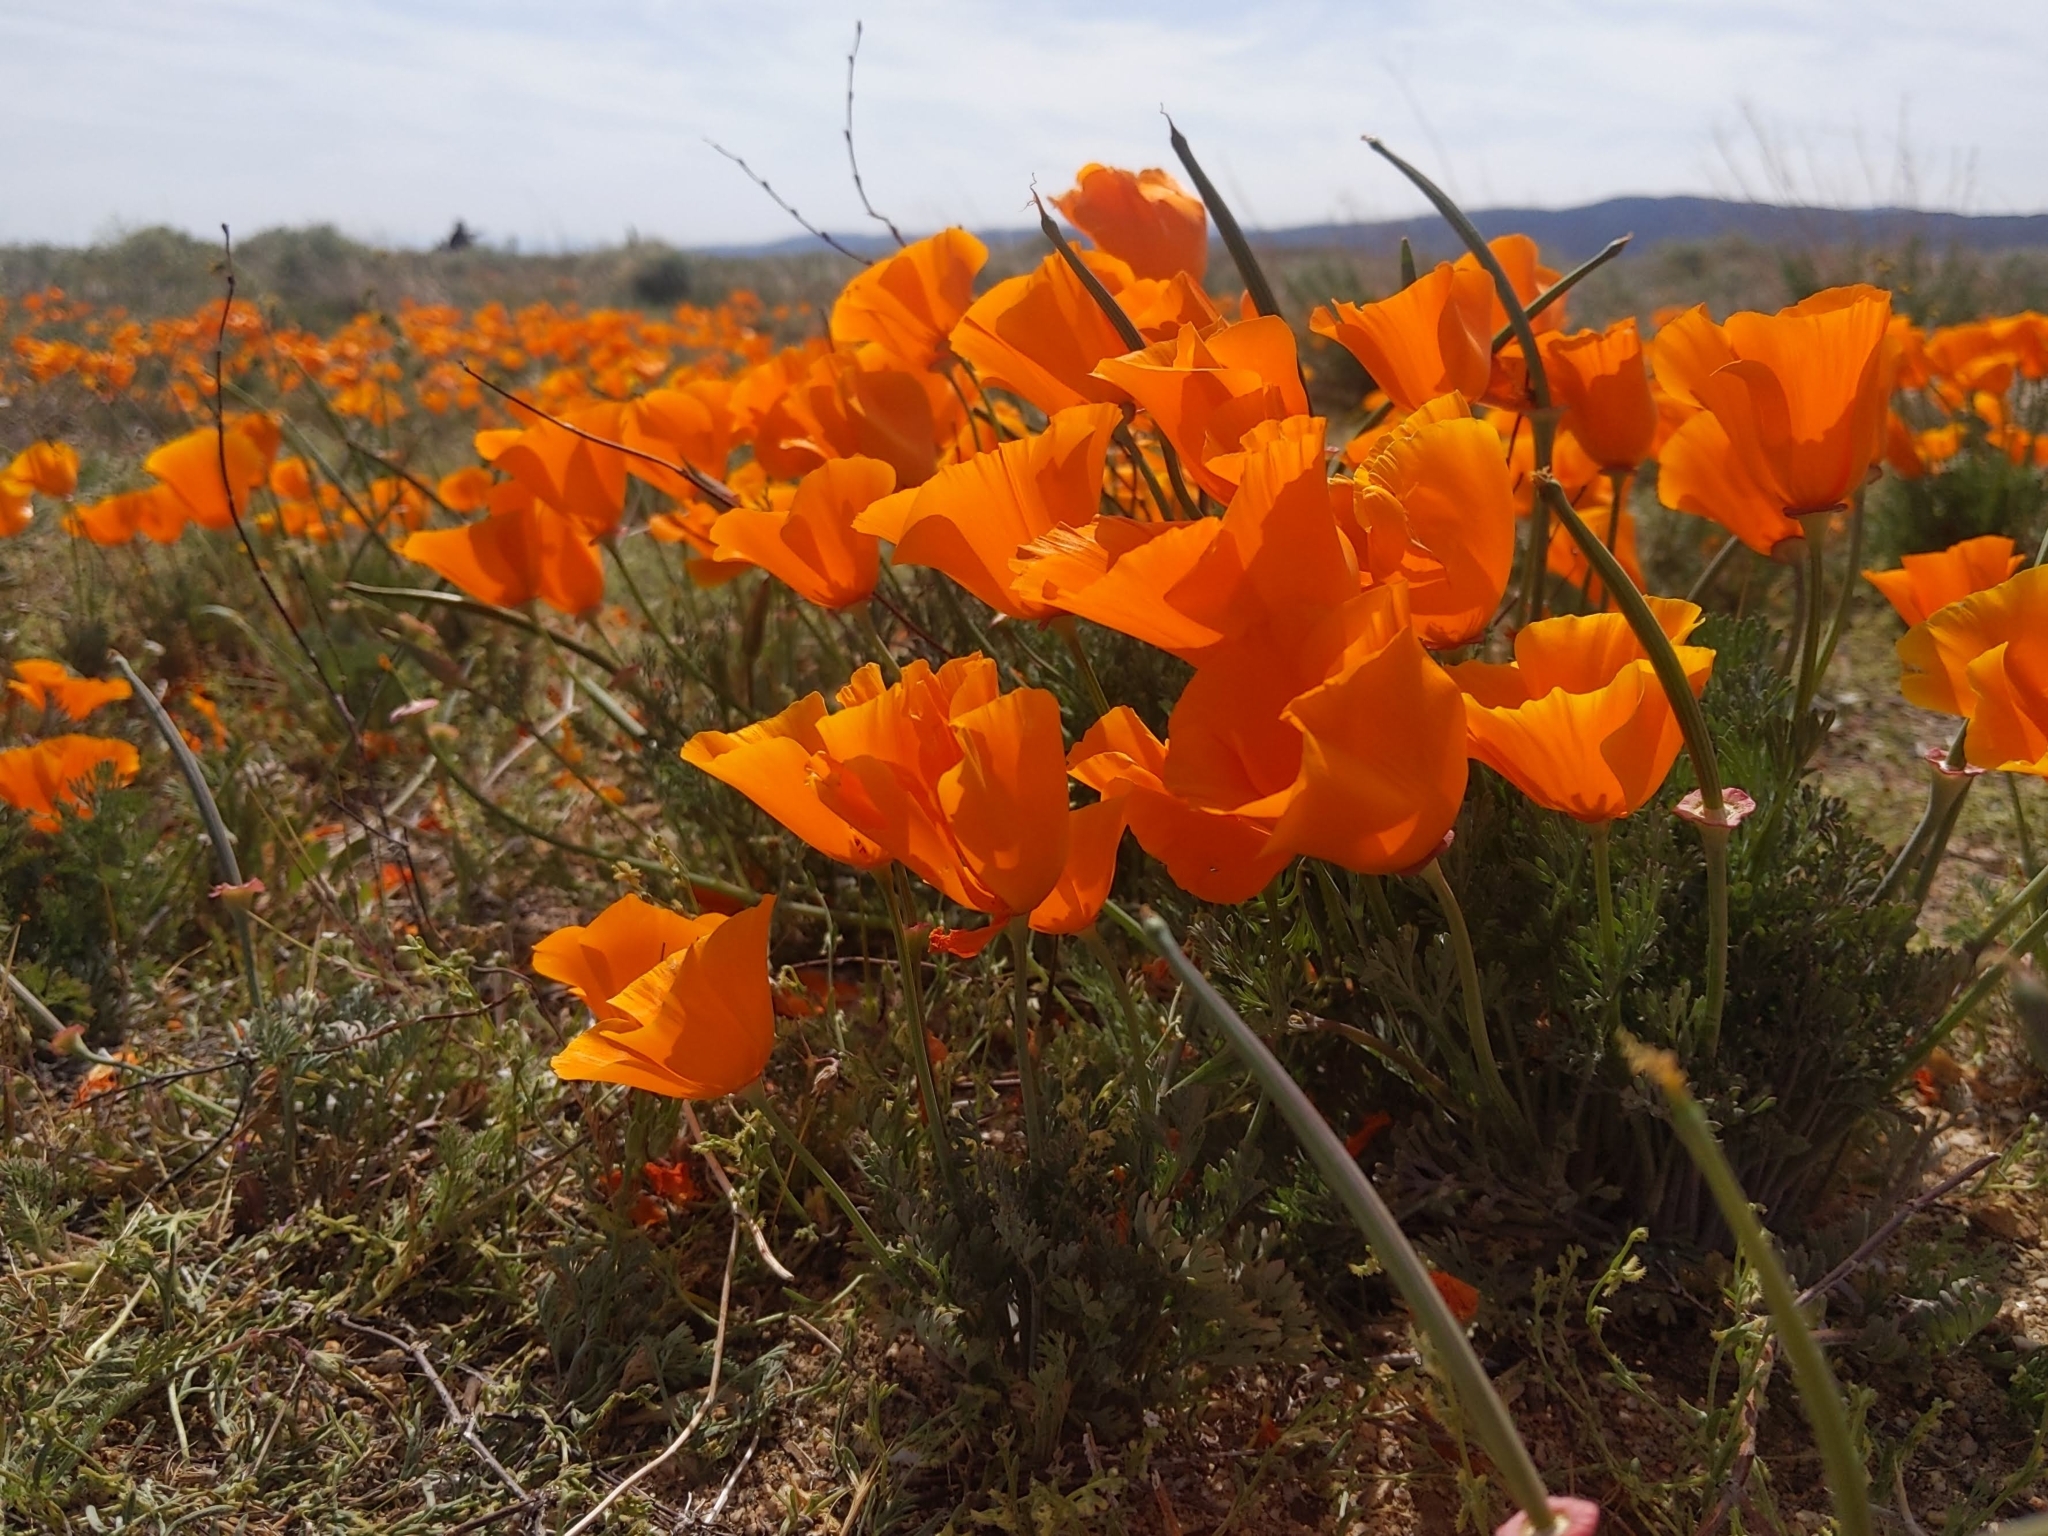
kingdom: Plantae
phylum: Tracheophyta
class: Magnoliopsida
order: Ranunculales
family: Papaveraceae
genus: Eschscholzia
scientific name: Eschscholzia californica
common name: California poppy
